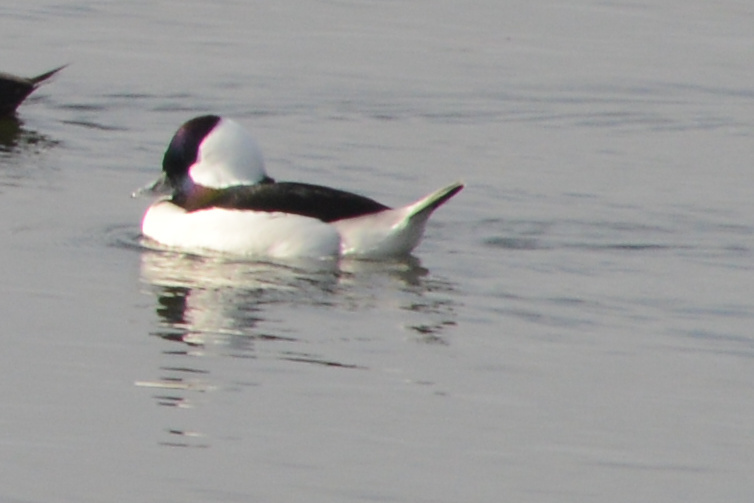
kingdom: Animalia
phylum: Chordata
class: Aves
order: Anseriformes
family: Anatidae
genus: Bucephala
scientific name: Bucephala albeola
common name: Bufflehead
